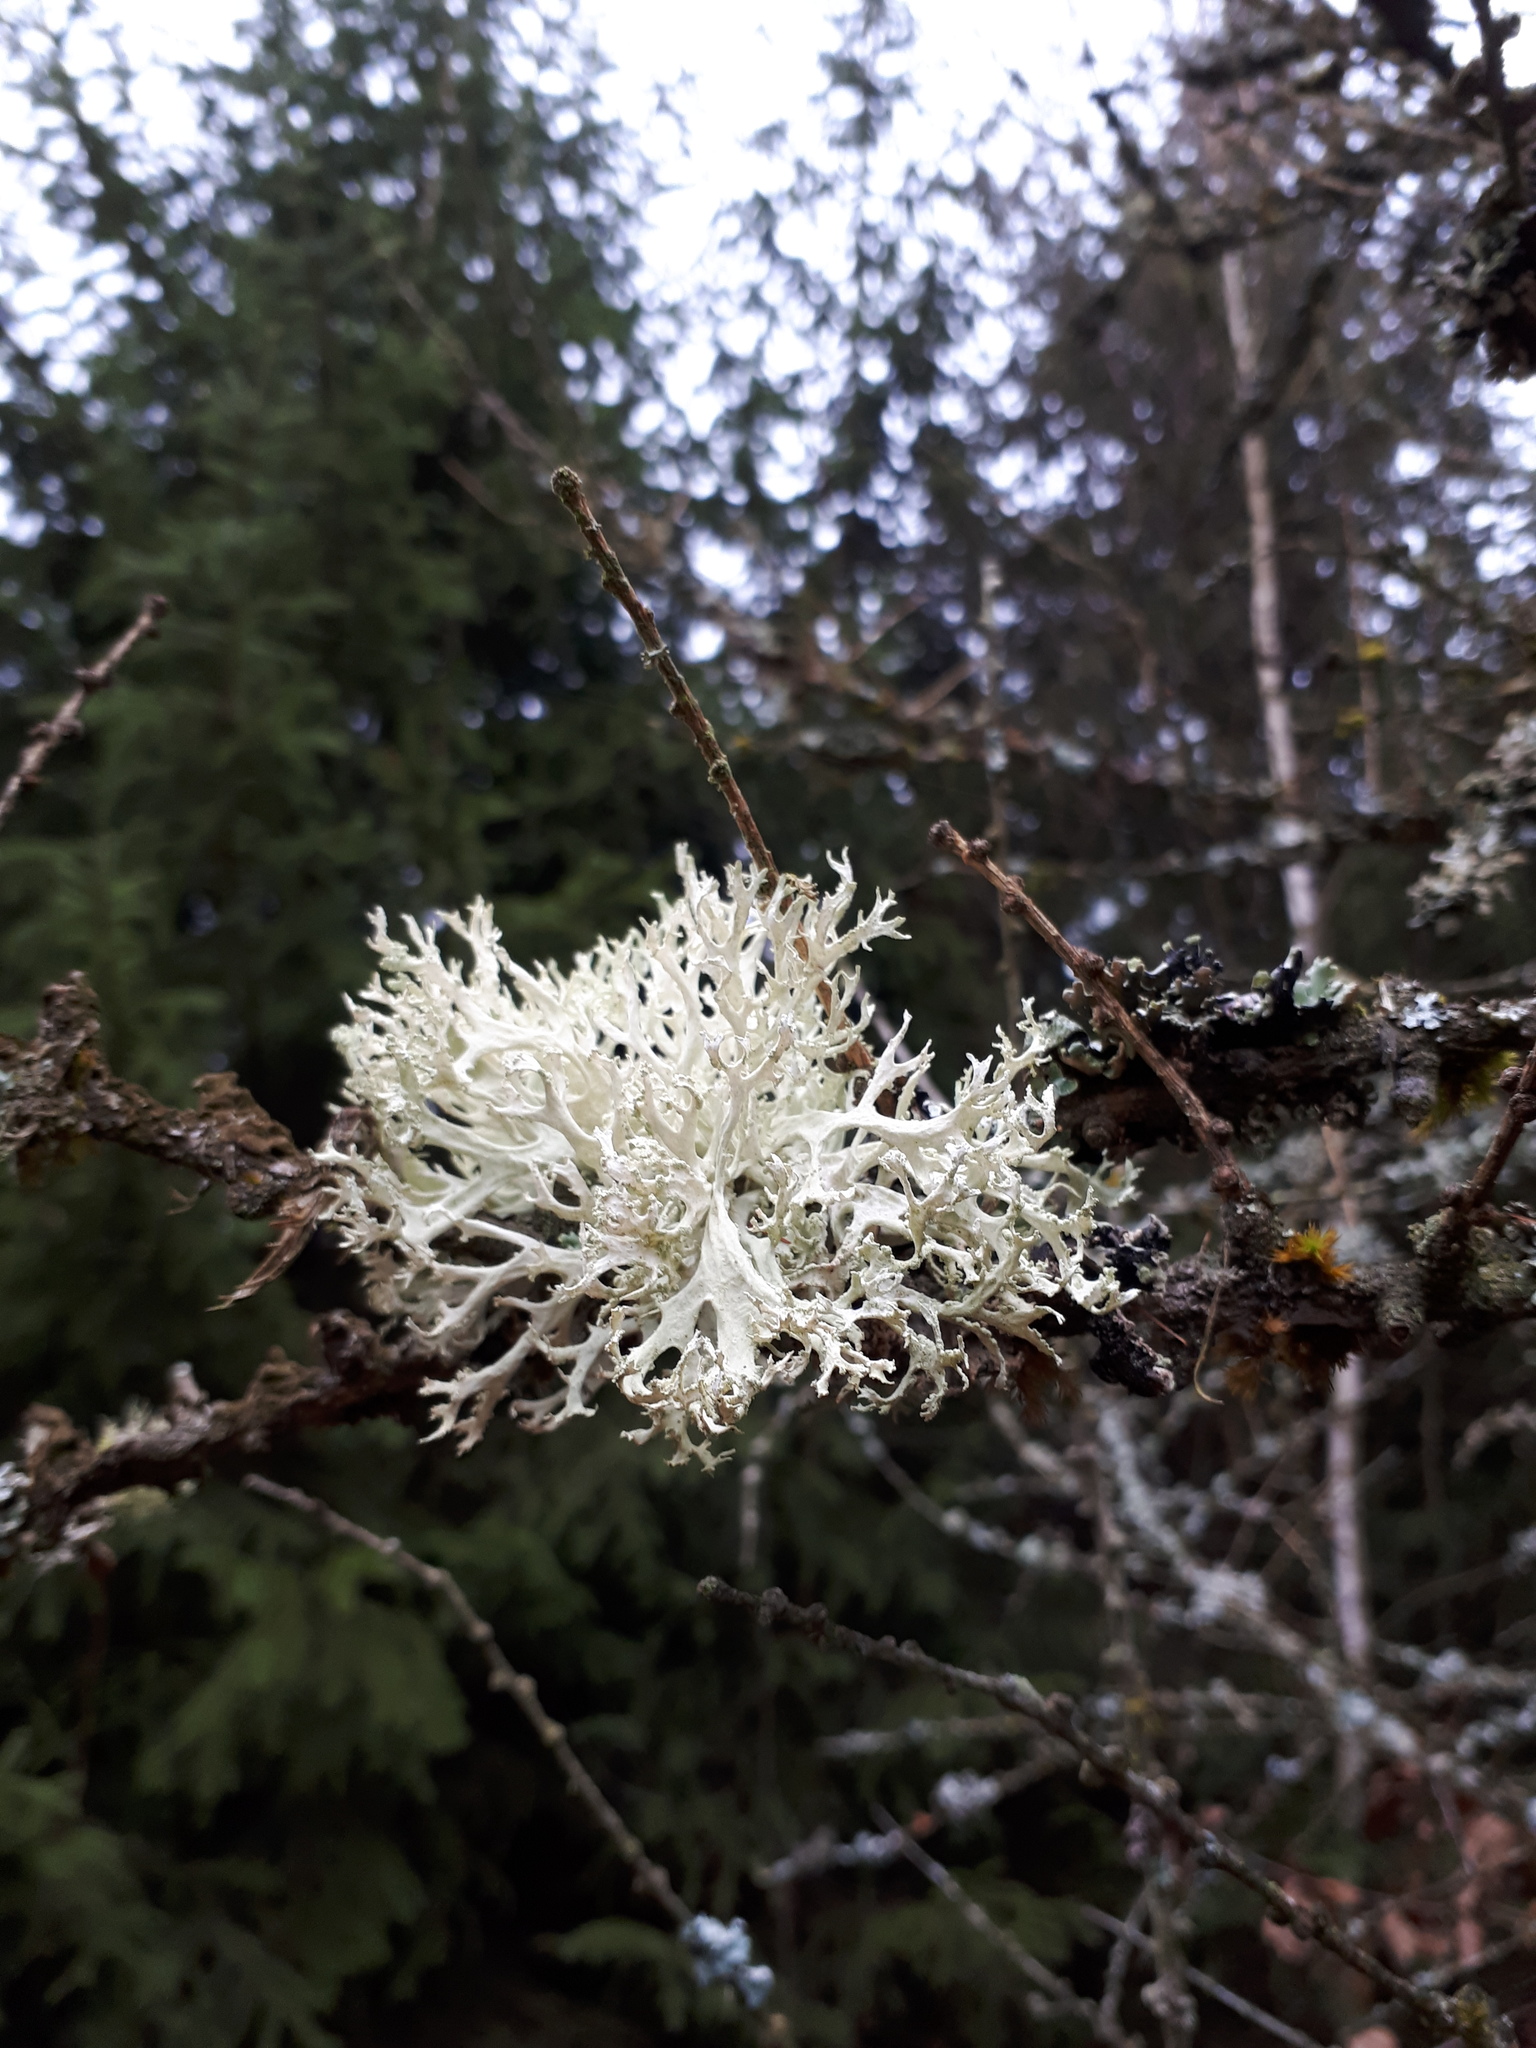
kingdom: Fungi
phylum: Ascomycota
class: Lecanoromycetes
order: Lecanorales
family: Parmeliaceae
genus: Evernia
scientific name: Evernia prunastri
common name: Oak moss
